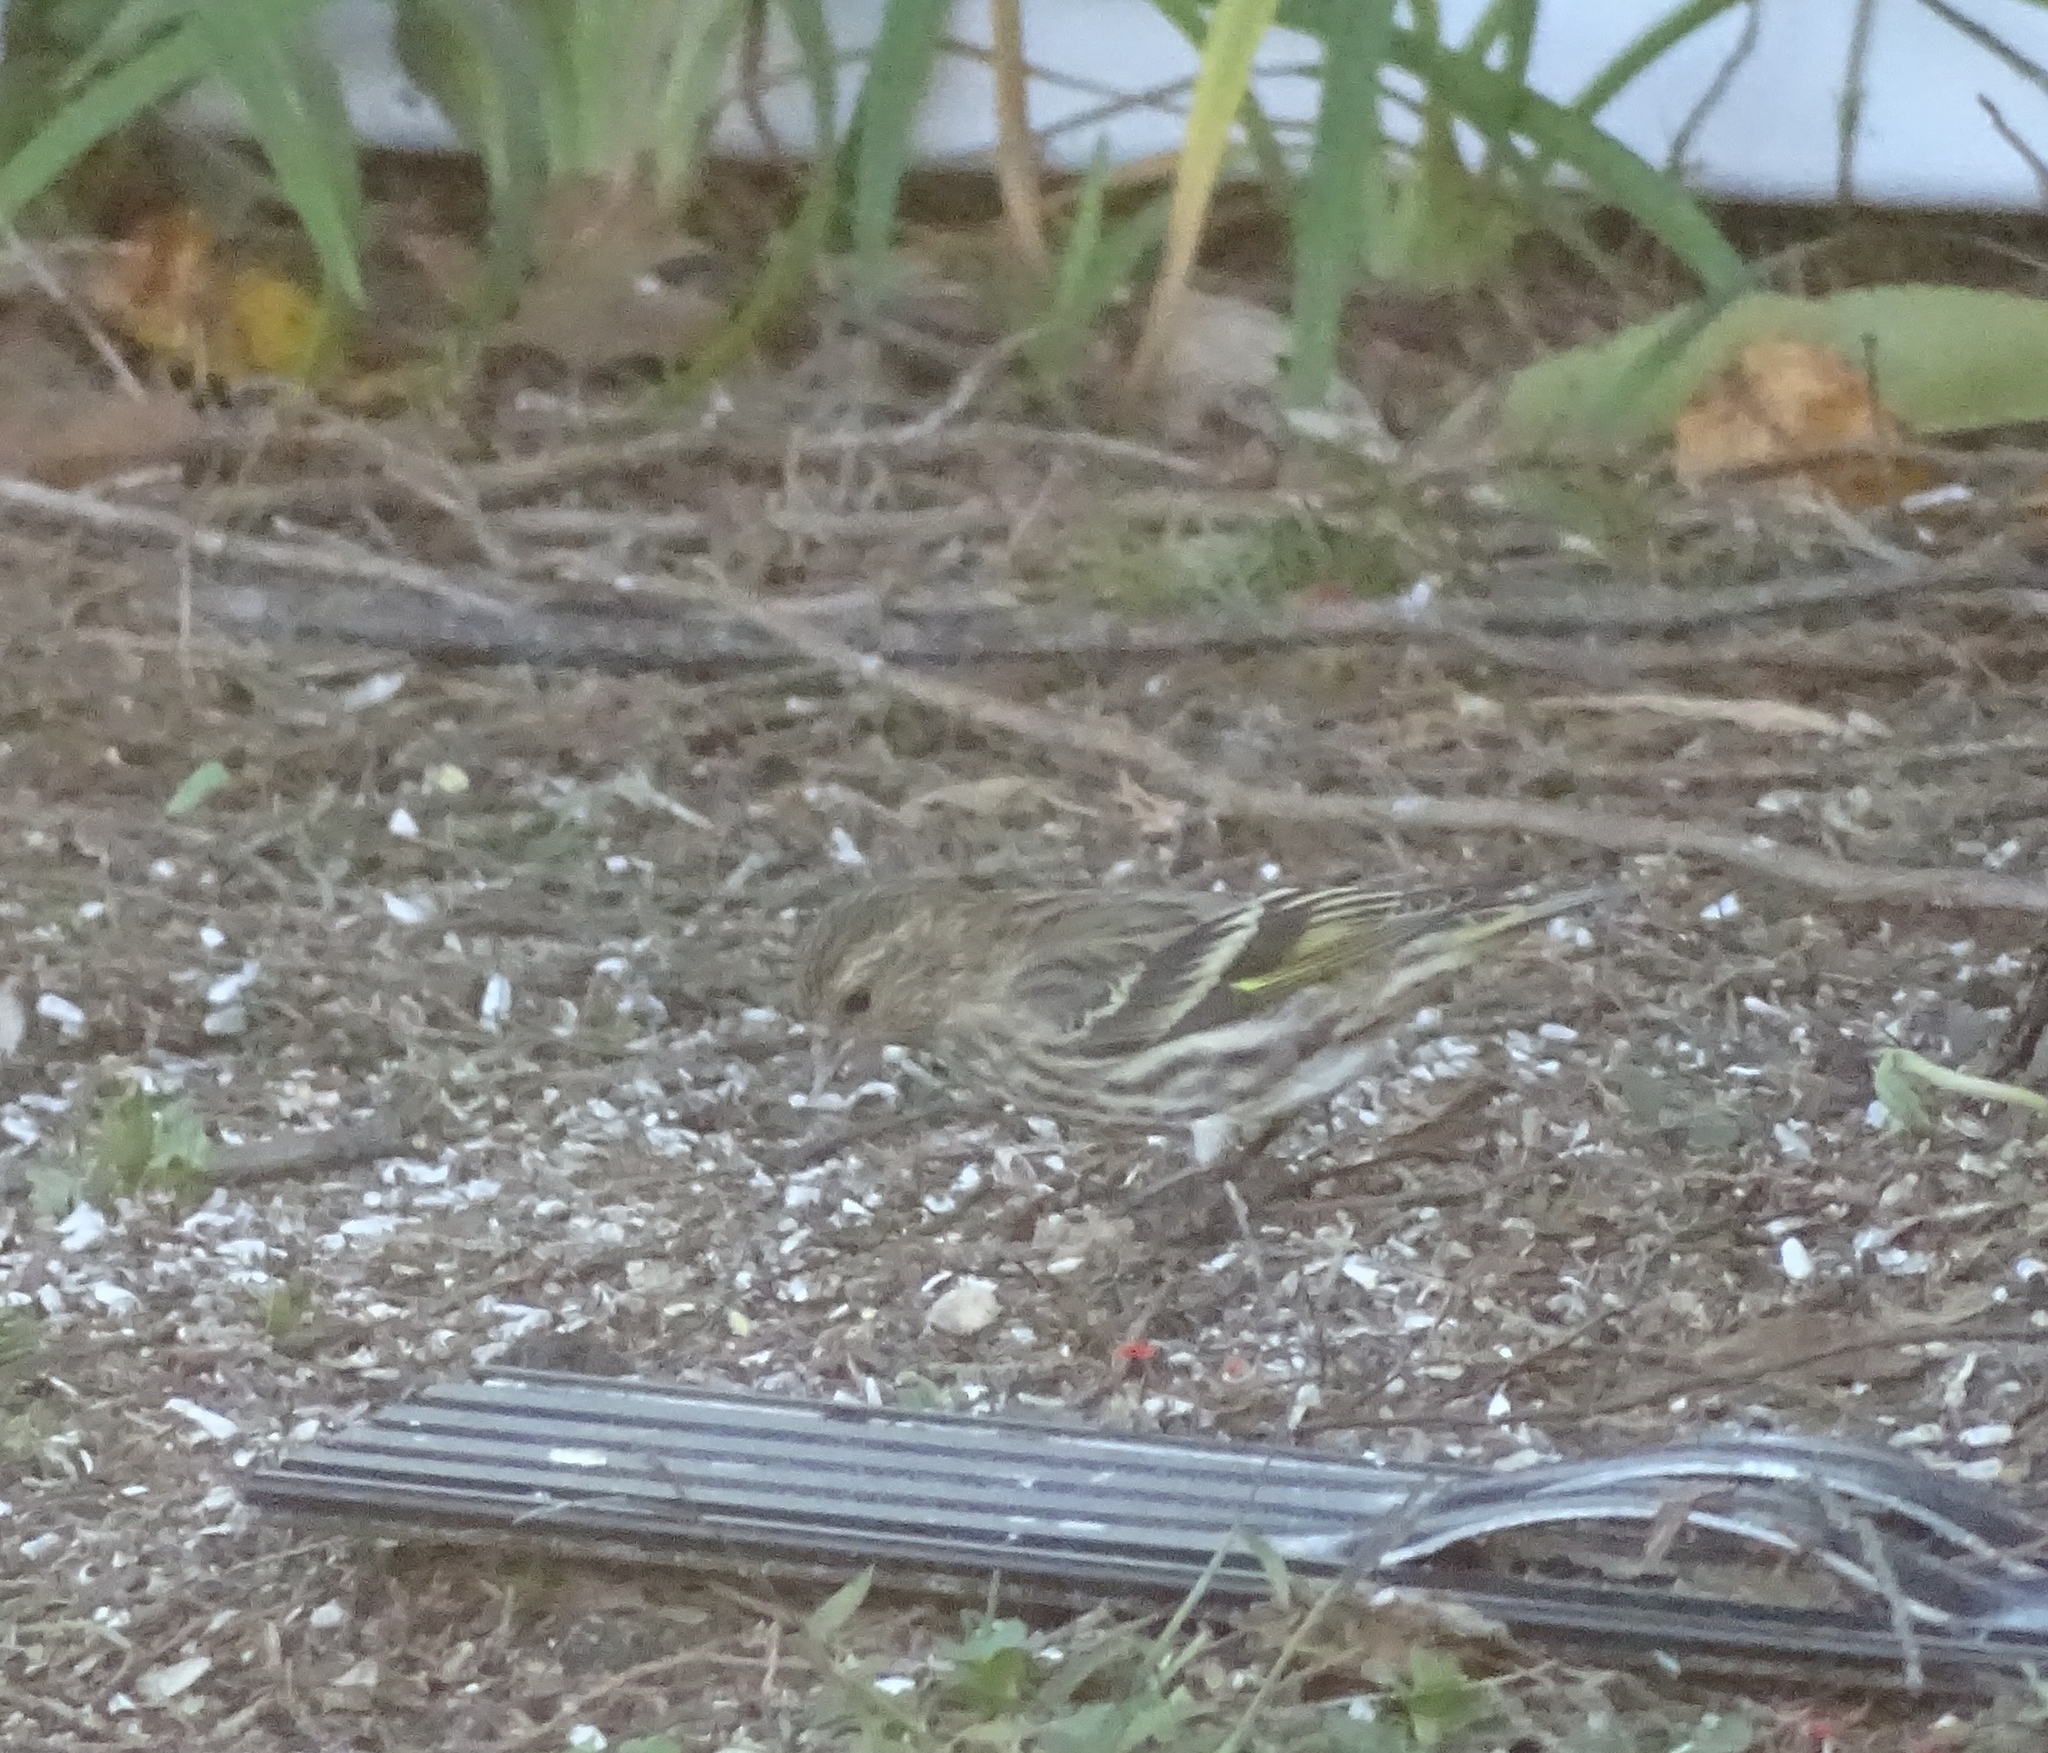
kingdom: Animalia
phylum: Chordata
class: Aves
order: Passeriformes
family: Fringillidae
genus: Spinus
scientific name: Spinus pinus
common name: Pine siskin
